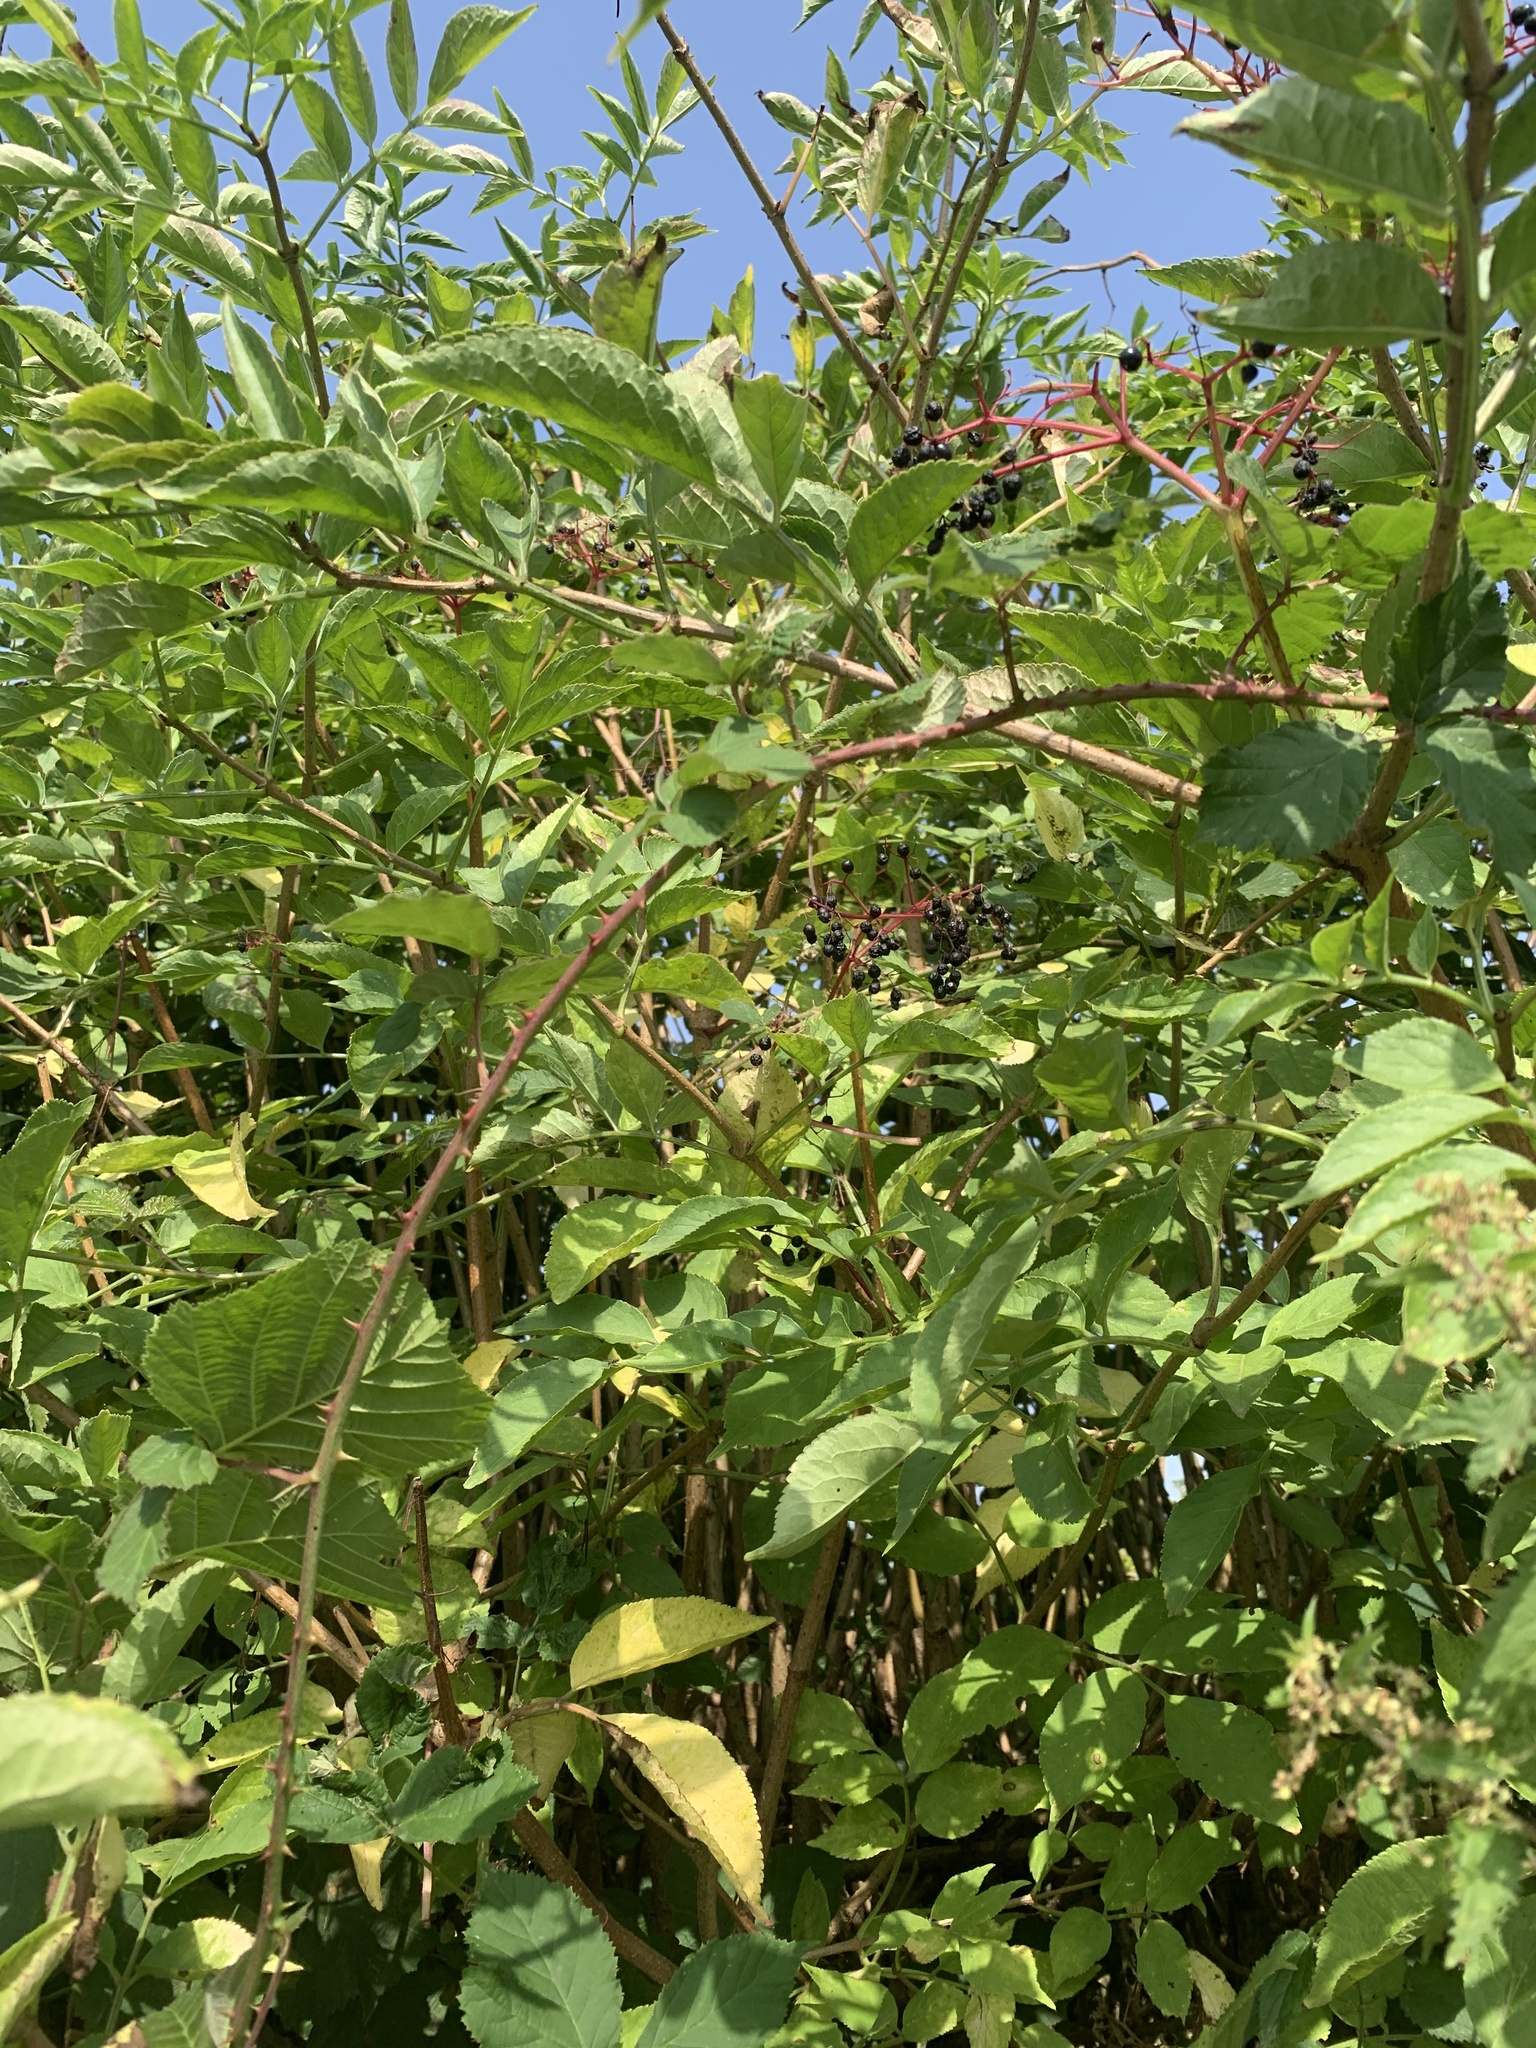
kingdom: Plantae
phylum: Tracheophyta
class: Magnoliopsida
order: Dipsacales
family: Viburnaceae
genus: Sambucus
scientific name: Sambucus nigra
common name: Elder
